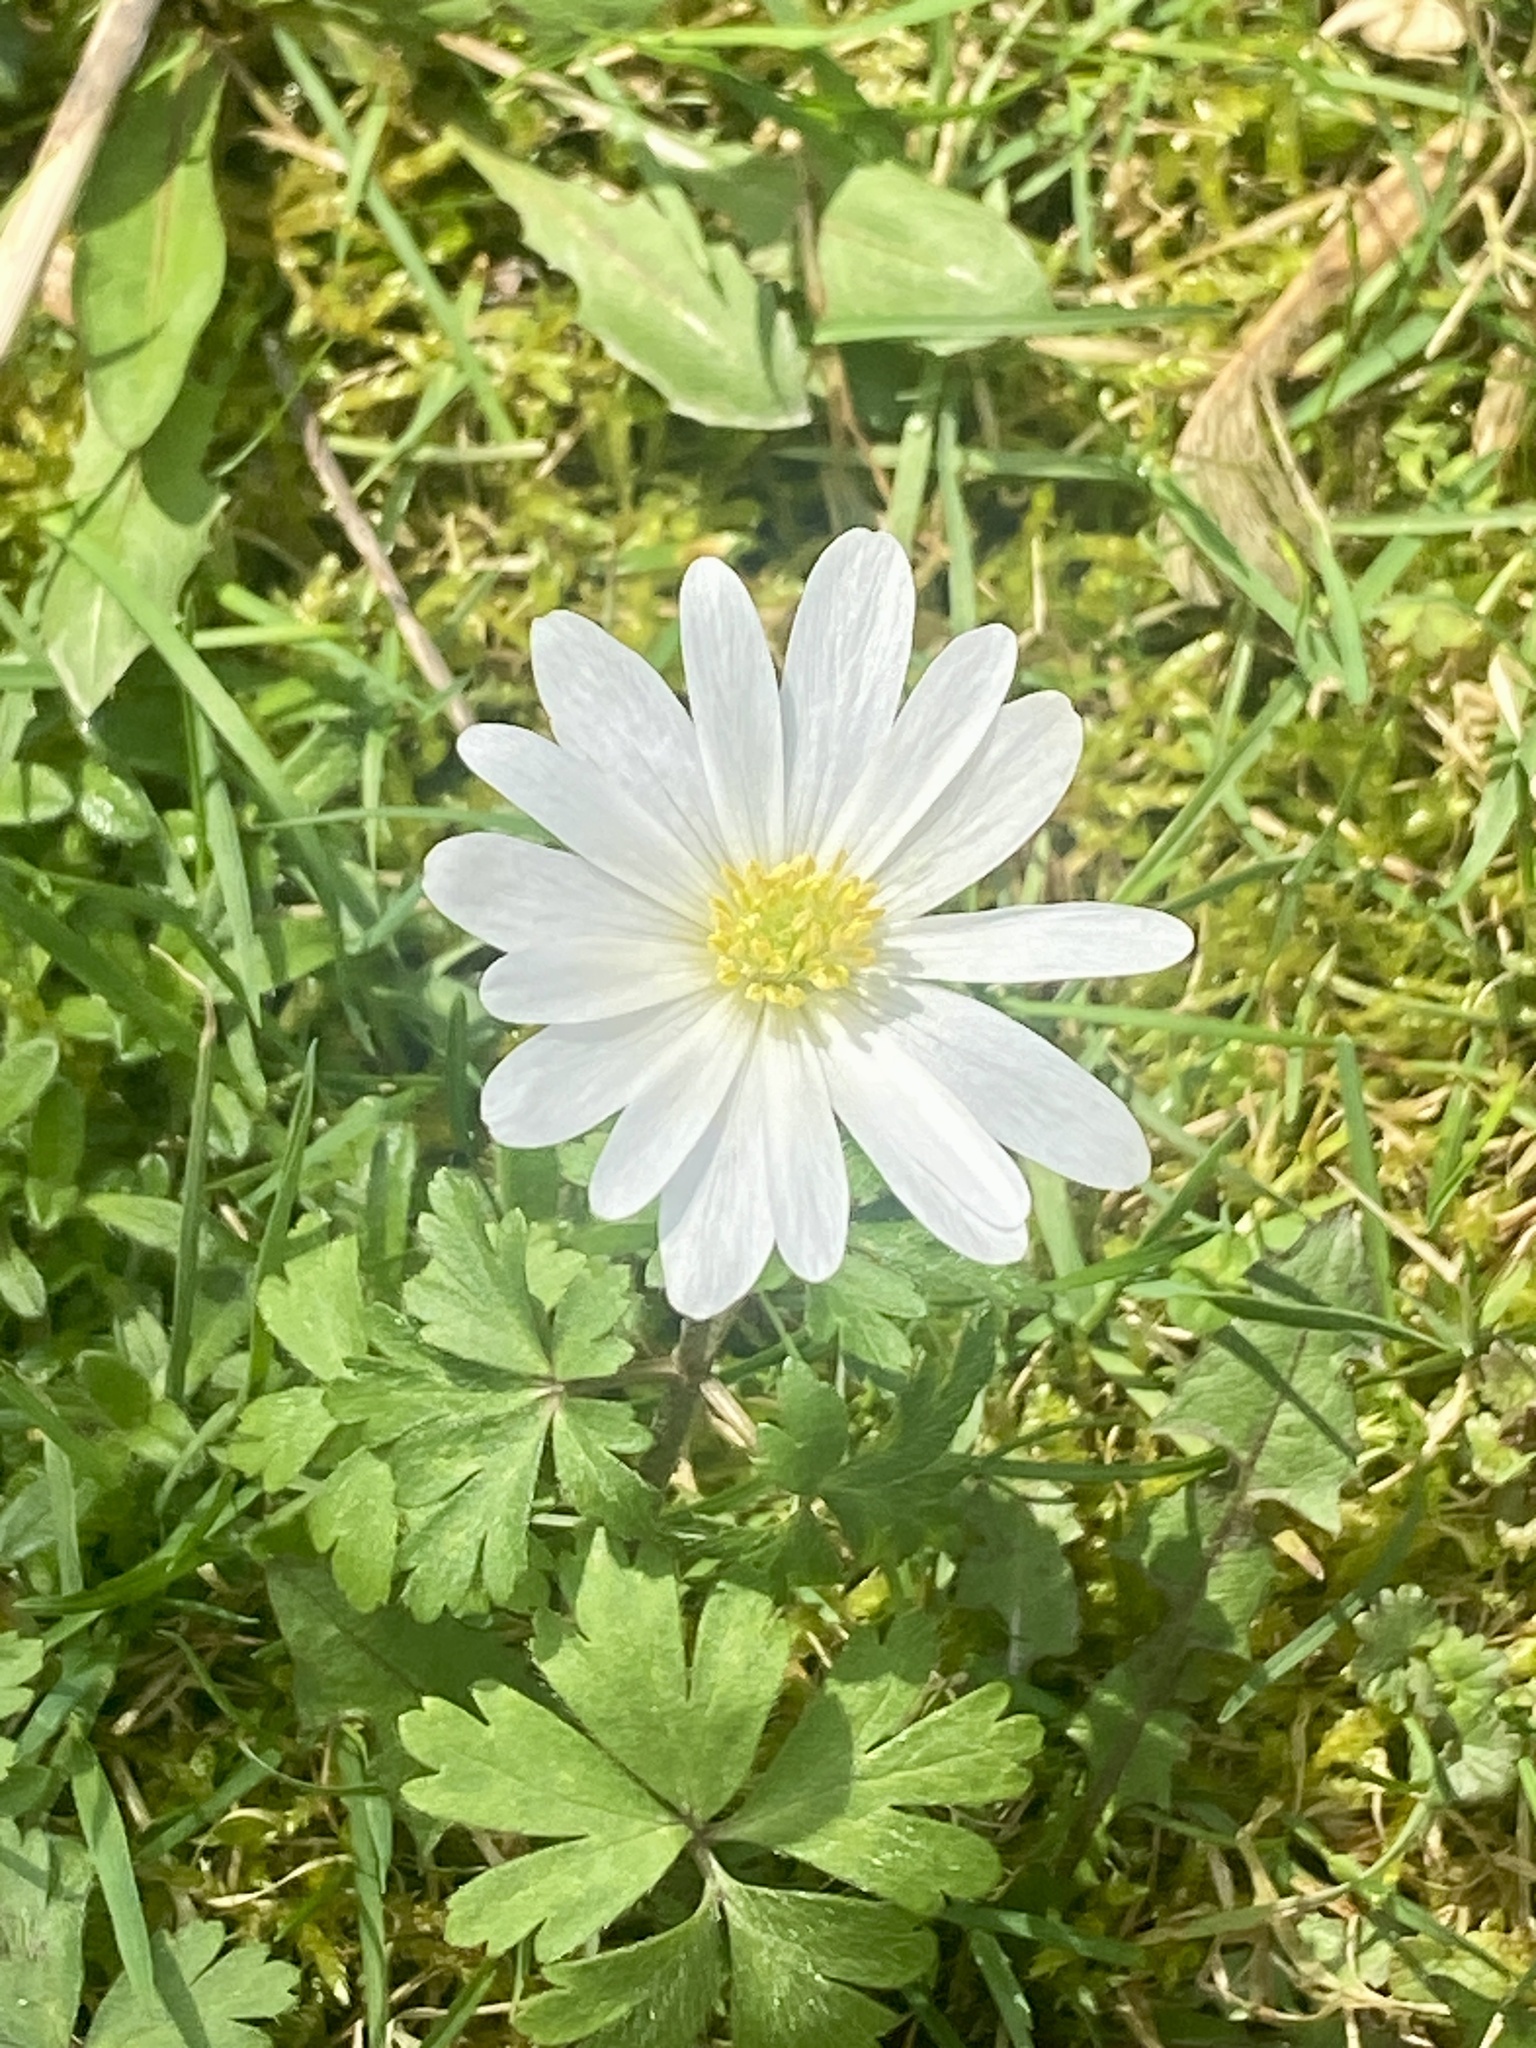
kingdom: Plantae
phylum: Tracheophyta
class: Magnoliopsida
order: Ranunculales
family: Ranunculaceae
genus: Anemone
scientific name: Anemone blanda
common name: Balkan anemone
